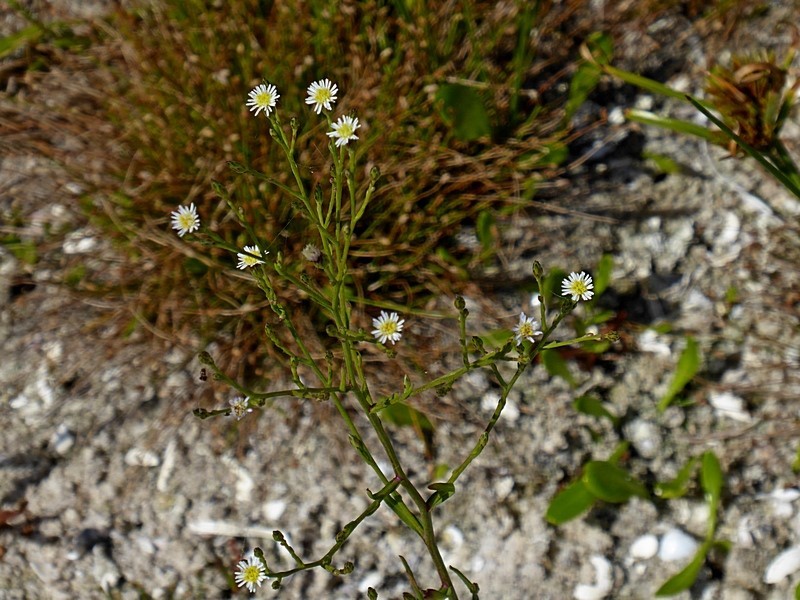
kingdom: Plantae
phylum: Tracheophyta
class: Magnoliopsida
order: Asterales
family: Asteraceae
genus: Symphyotrichum
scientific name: Symphyotrichum subulatum
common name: Annual saltmarsh aster
